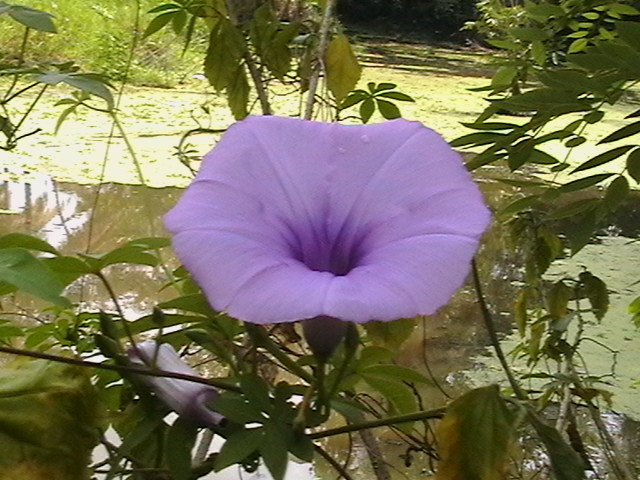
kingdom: Plantae
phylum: Tracheophyta
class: Magnoliopsida
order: Solanales
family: Convolvulaceae
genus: Ipomoea
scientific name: Ipomoea cairica
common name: Mile a minute vine
